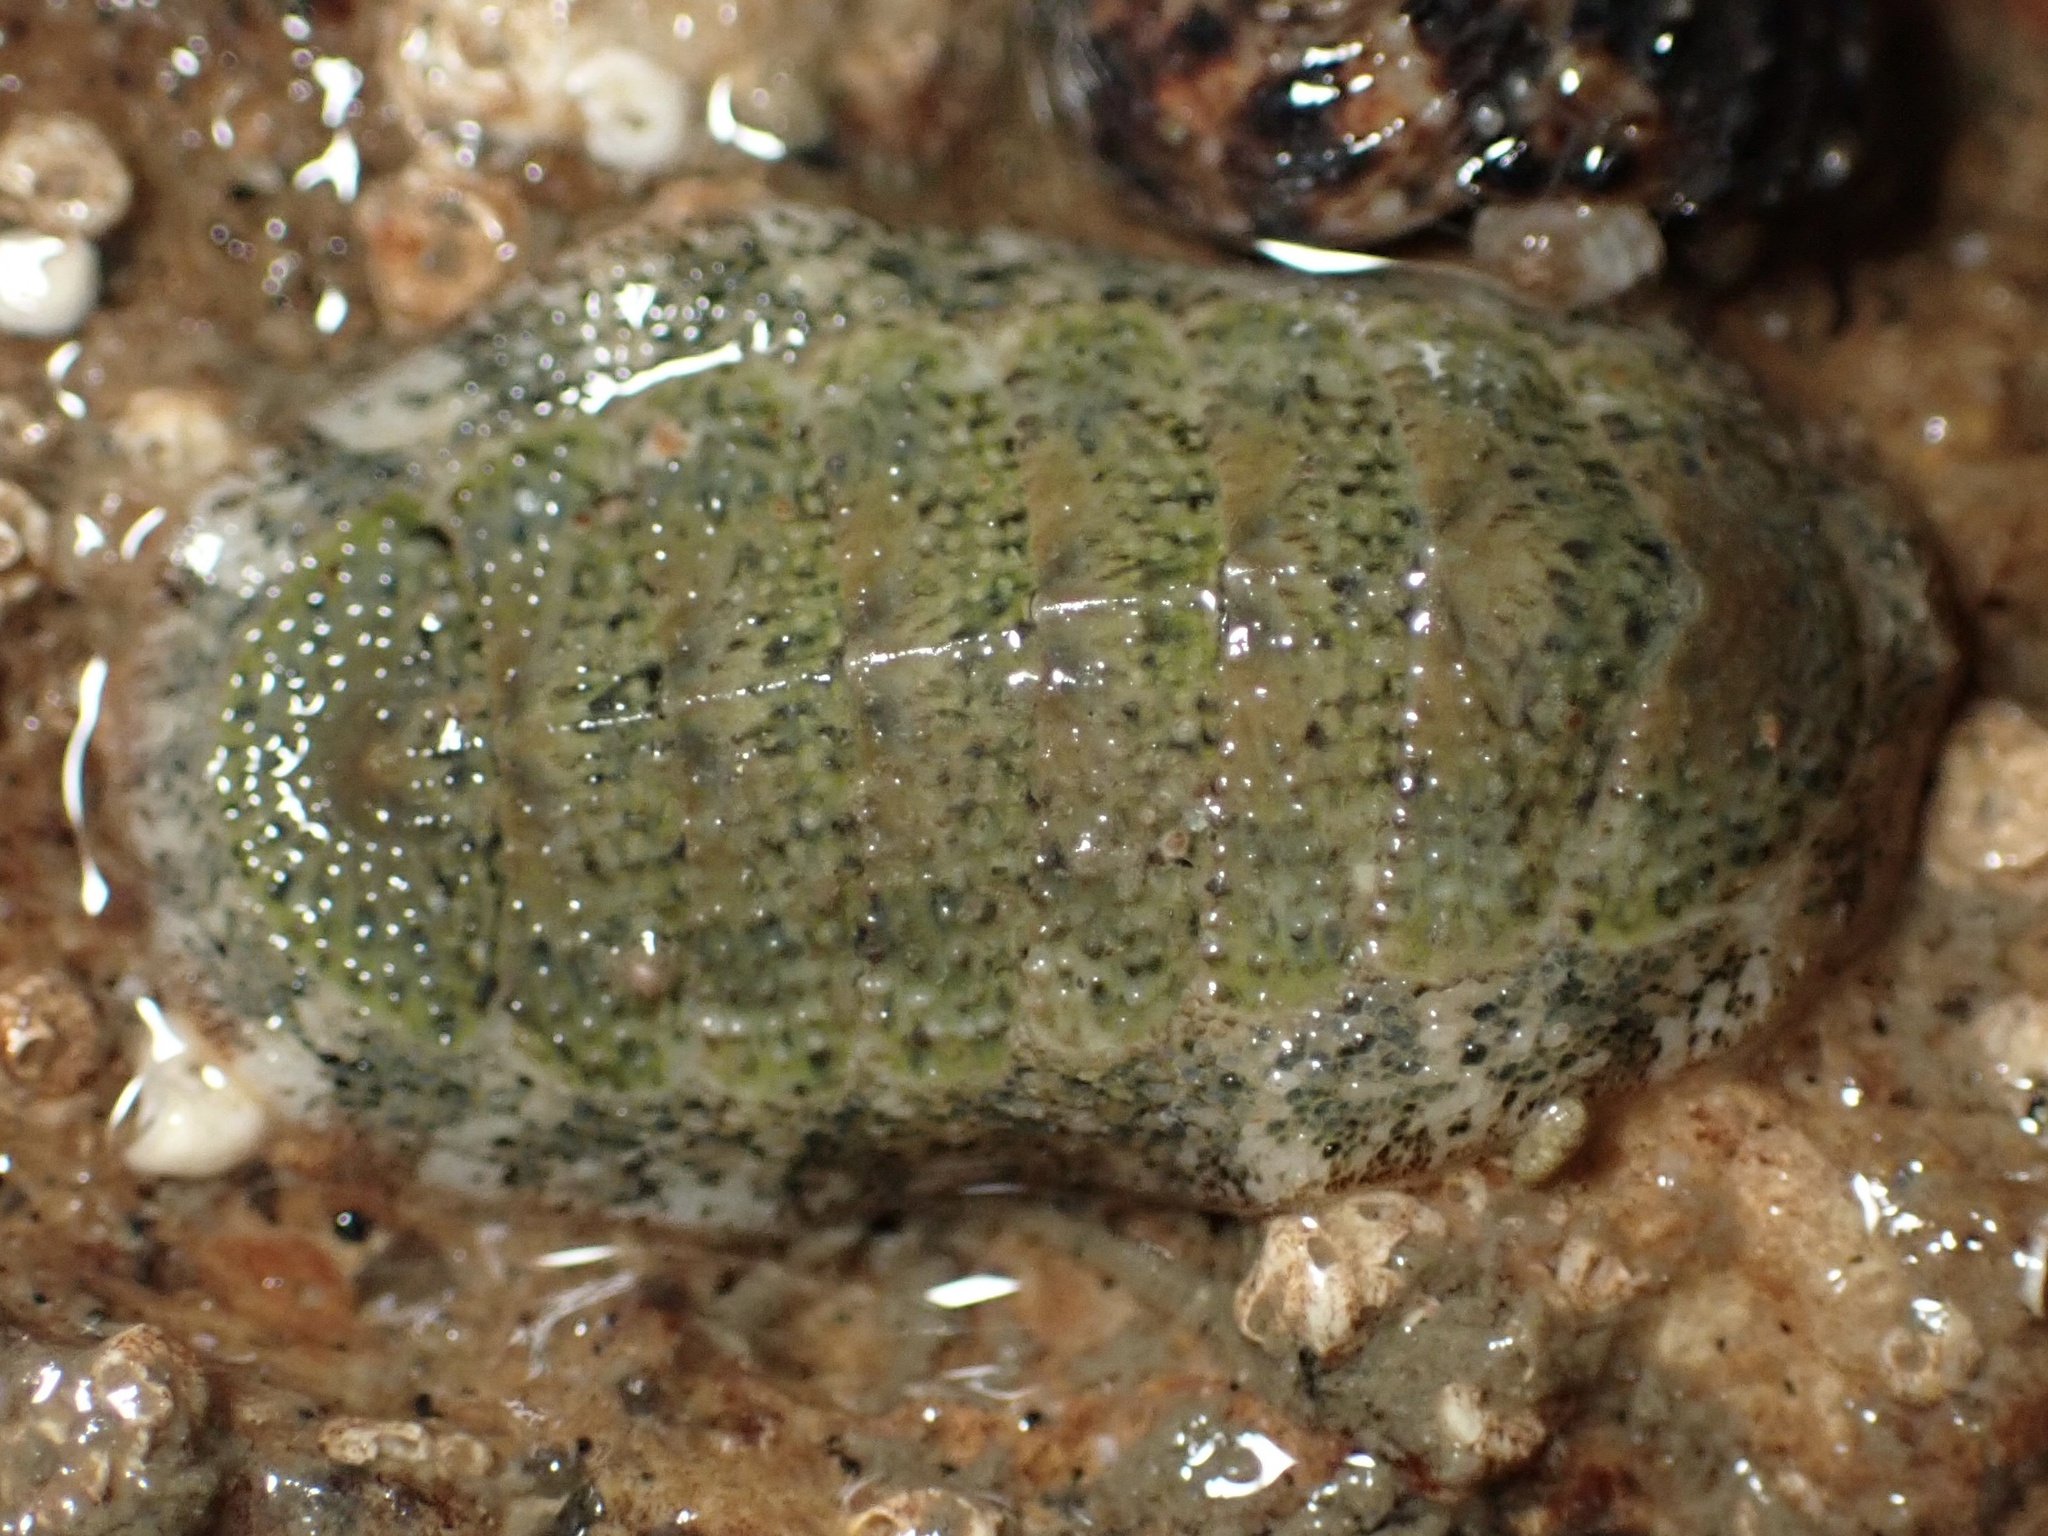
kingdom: Animalia
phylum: Mollusca
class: Polyplacophora
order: Chitonida
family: Ischnochitonidae
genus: Lepidozona
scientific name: Lepidozona pectinulata
